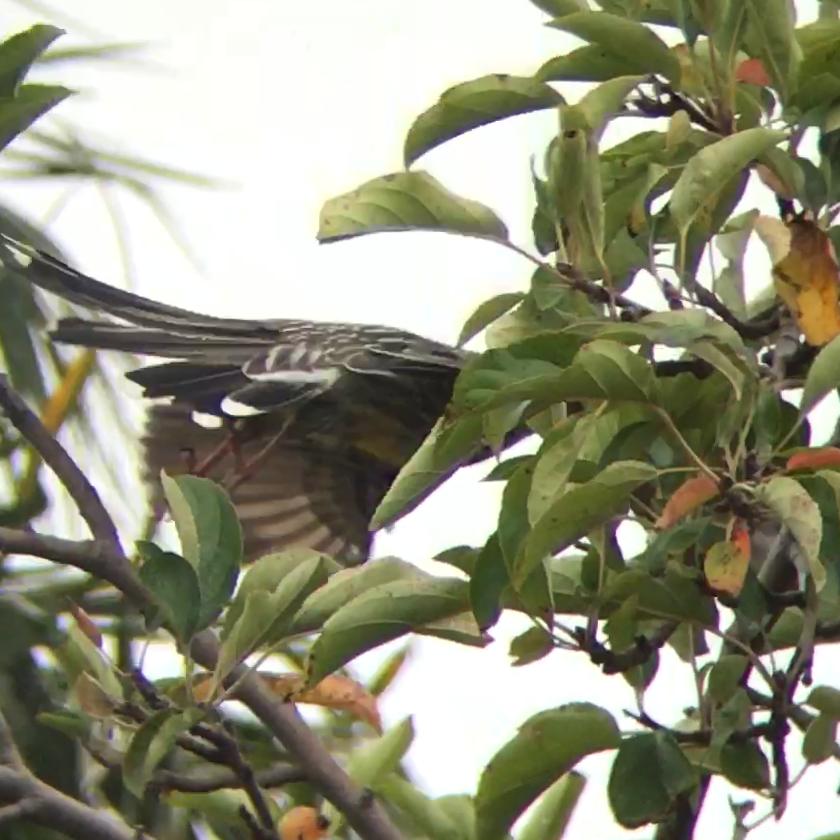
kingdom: Animalia
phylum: Chordata
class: Aves
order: Passeriformes
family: Meliphagidae
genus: Anthochaera
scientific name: Anthochaera carunculata
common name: Red wattlebird
